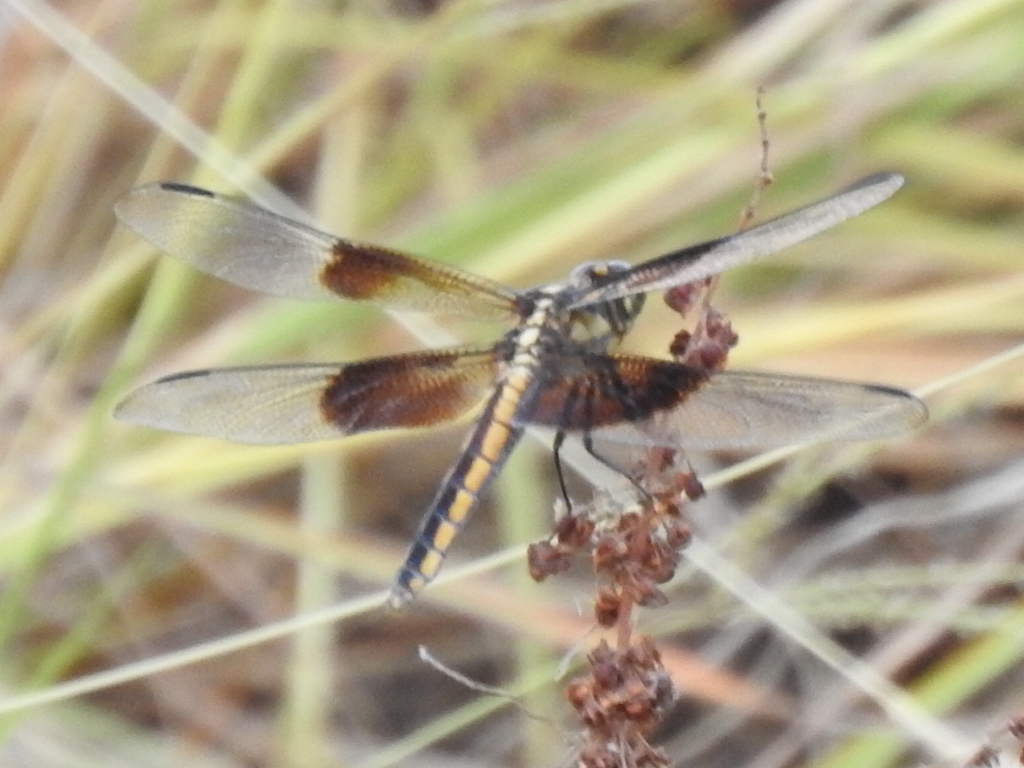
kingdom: Animalia
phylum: Arthropoda
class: Insecta
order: Odonata
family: Libellulidae
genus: Libellula
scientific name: Libellula luctuosa
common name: Widow skimmer
